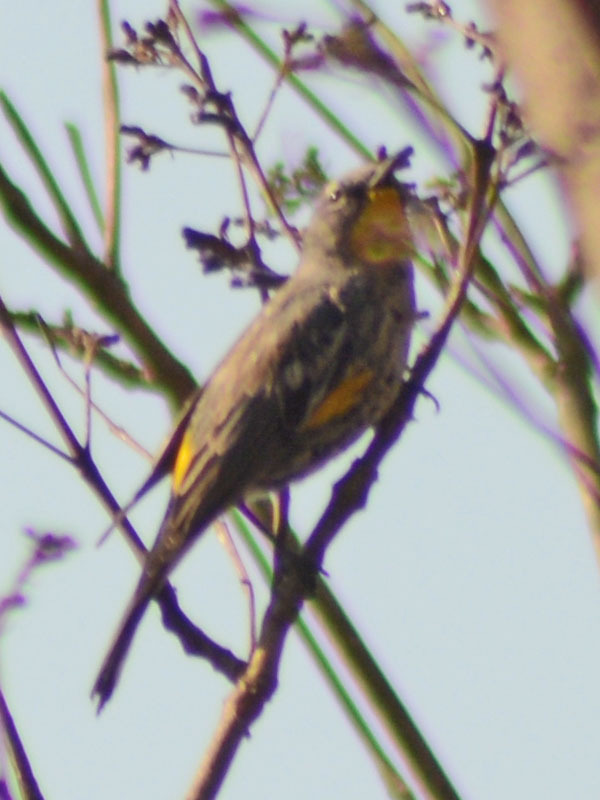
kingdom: Animalia
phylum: Chordata
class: Aves
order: Passeriformes
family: Parulidae
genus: Setophaga
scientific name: Setophaga auduboni
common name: Audubon's warbler
